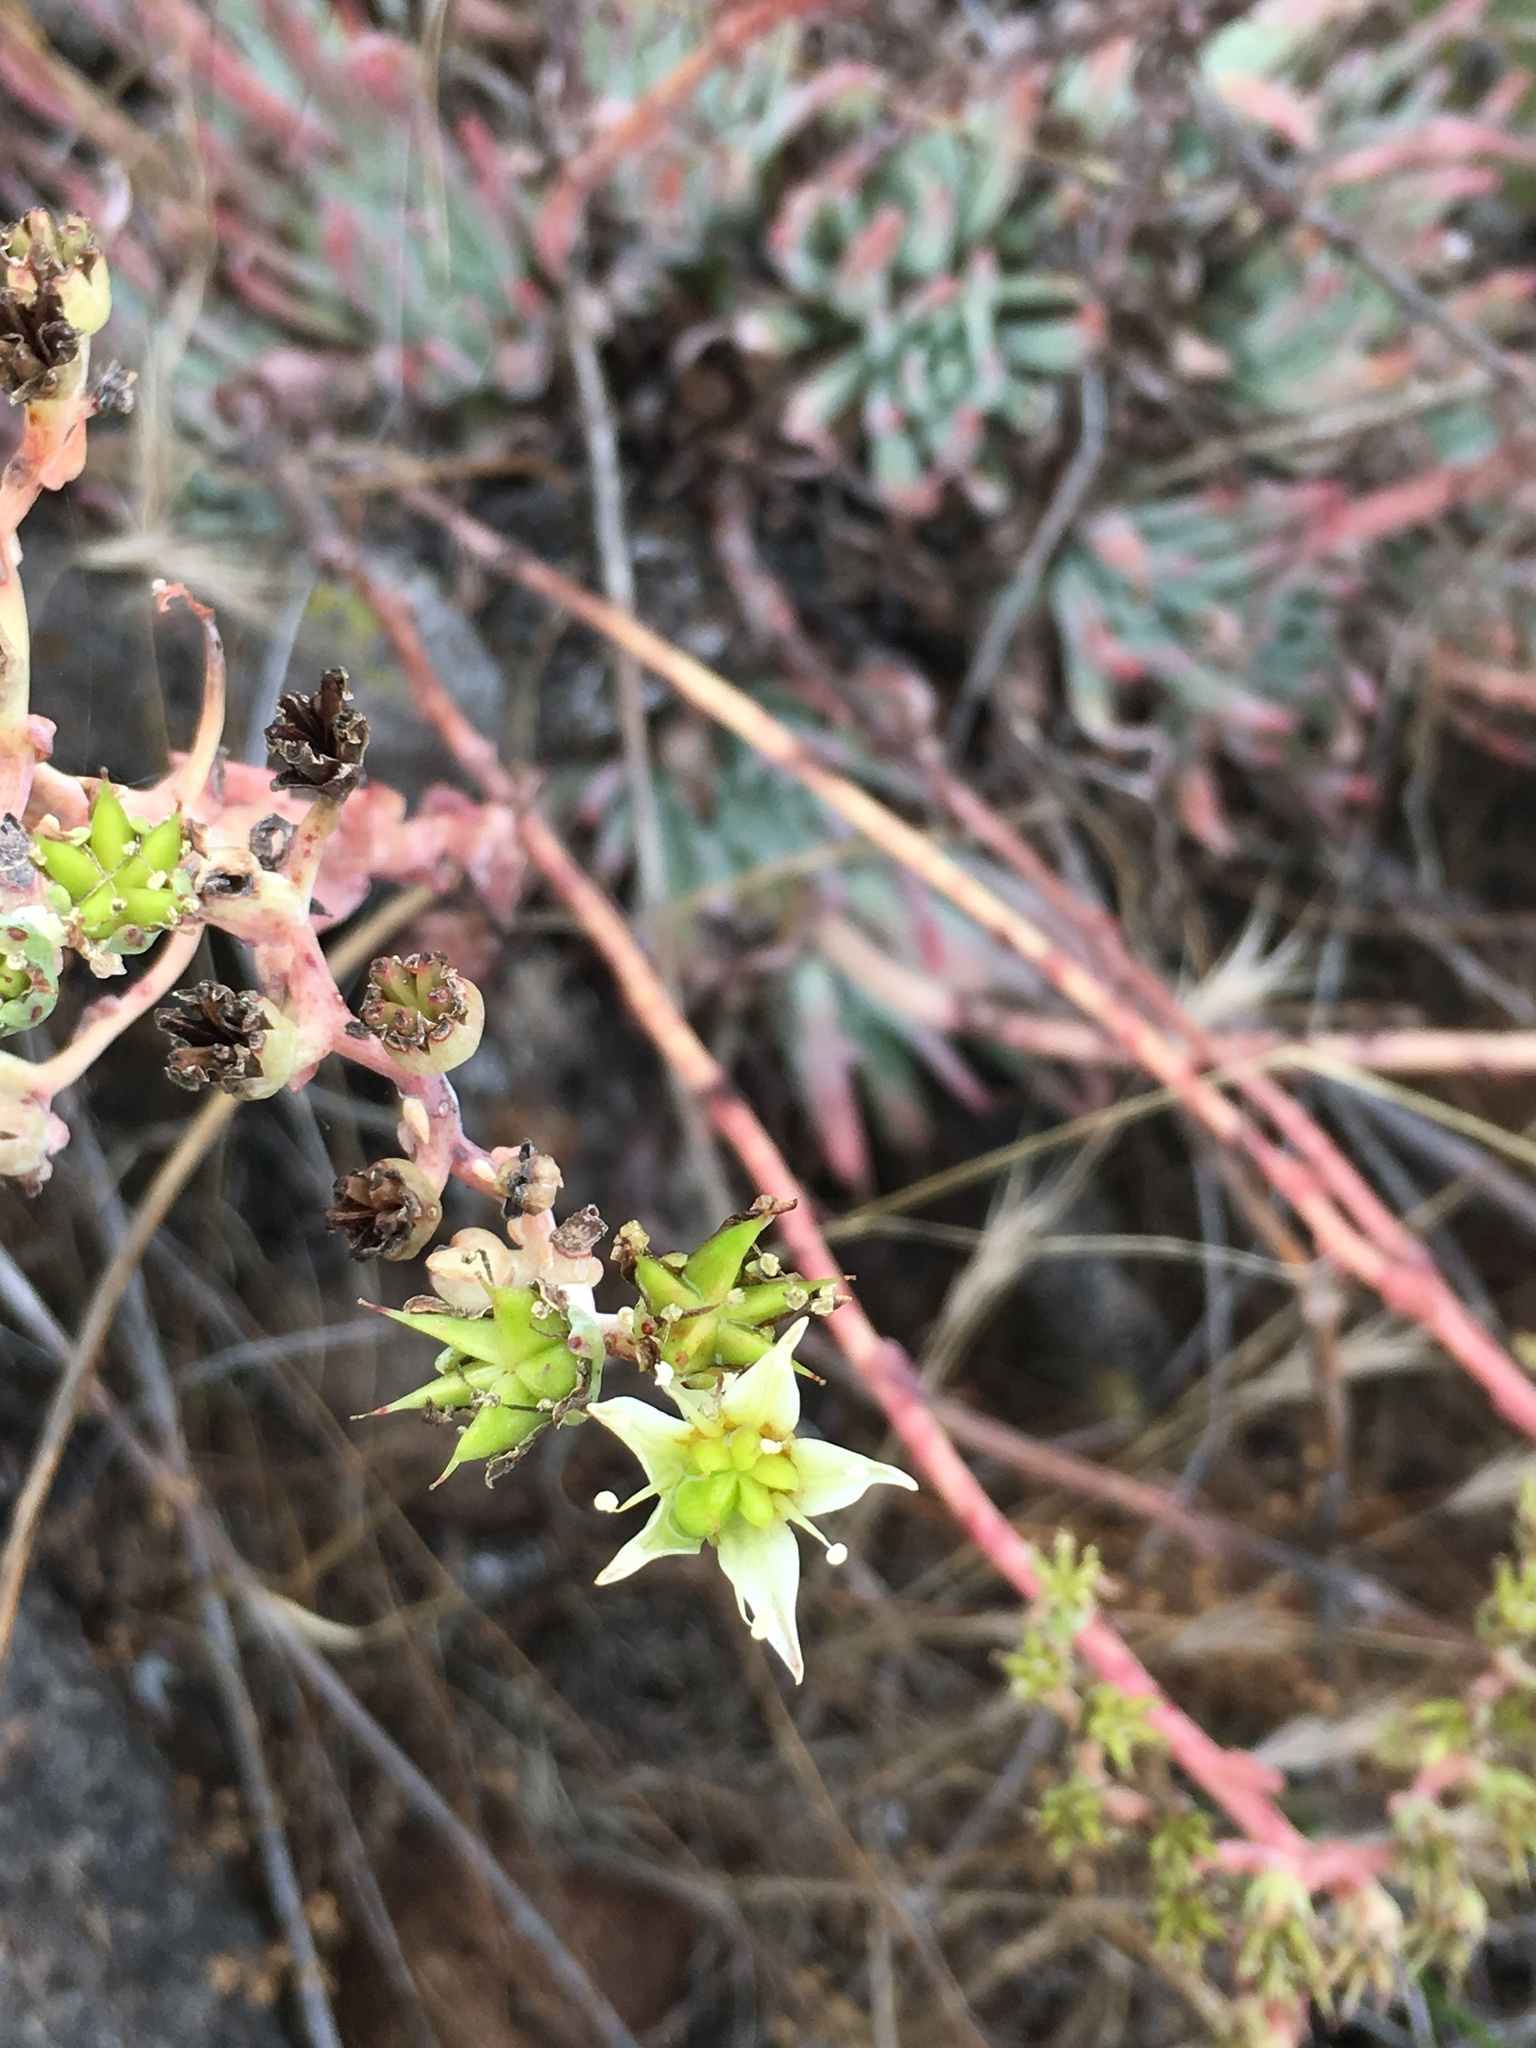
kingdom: Plantae
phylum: Tracheophyta
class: Magnoliopsida
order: Saxifragales
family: Crassulaceae
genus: Dudleya
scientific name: Dudleya virens
